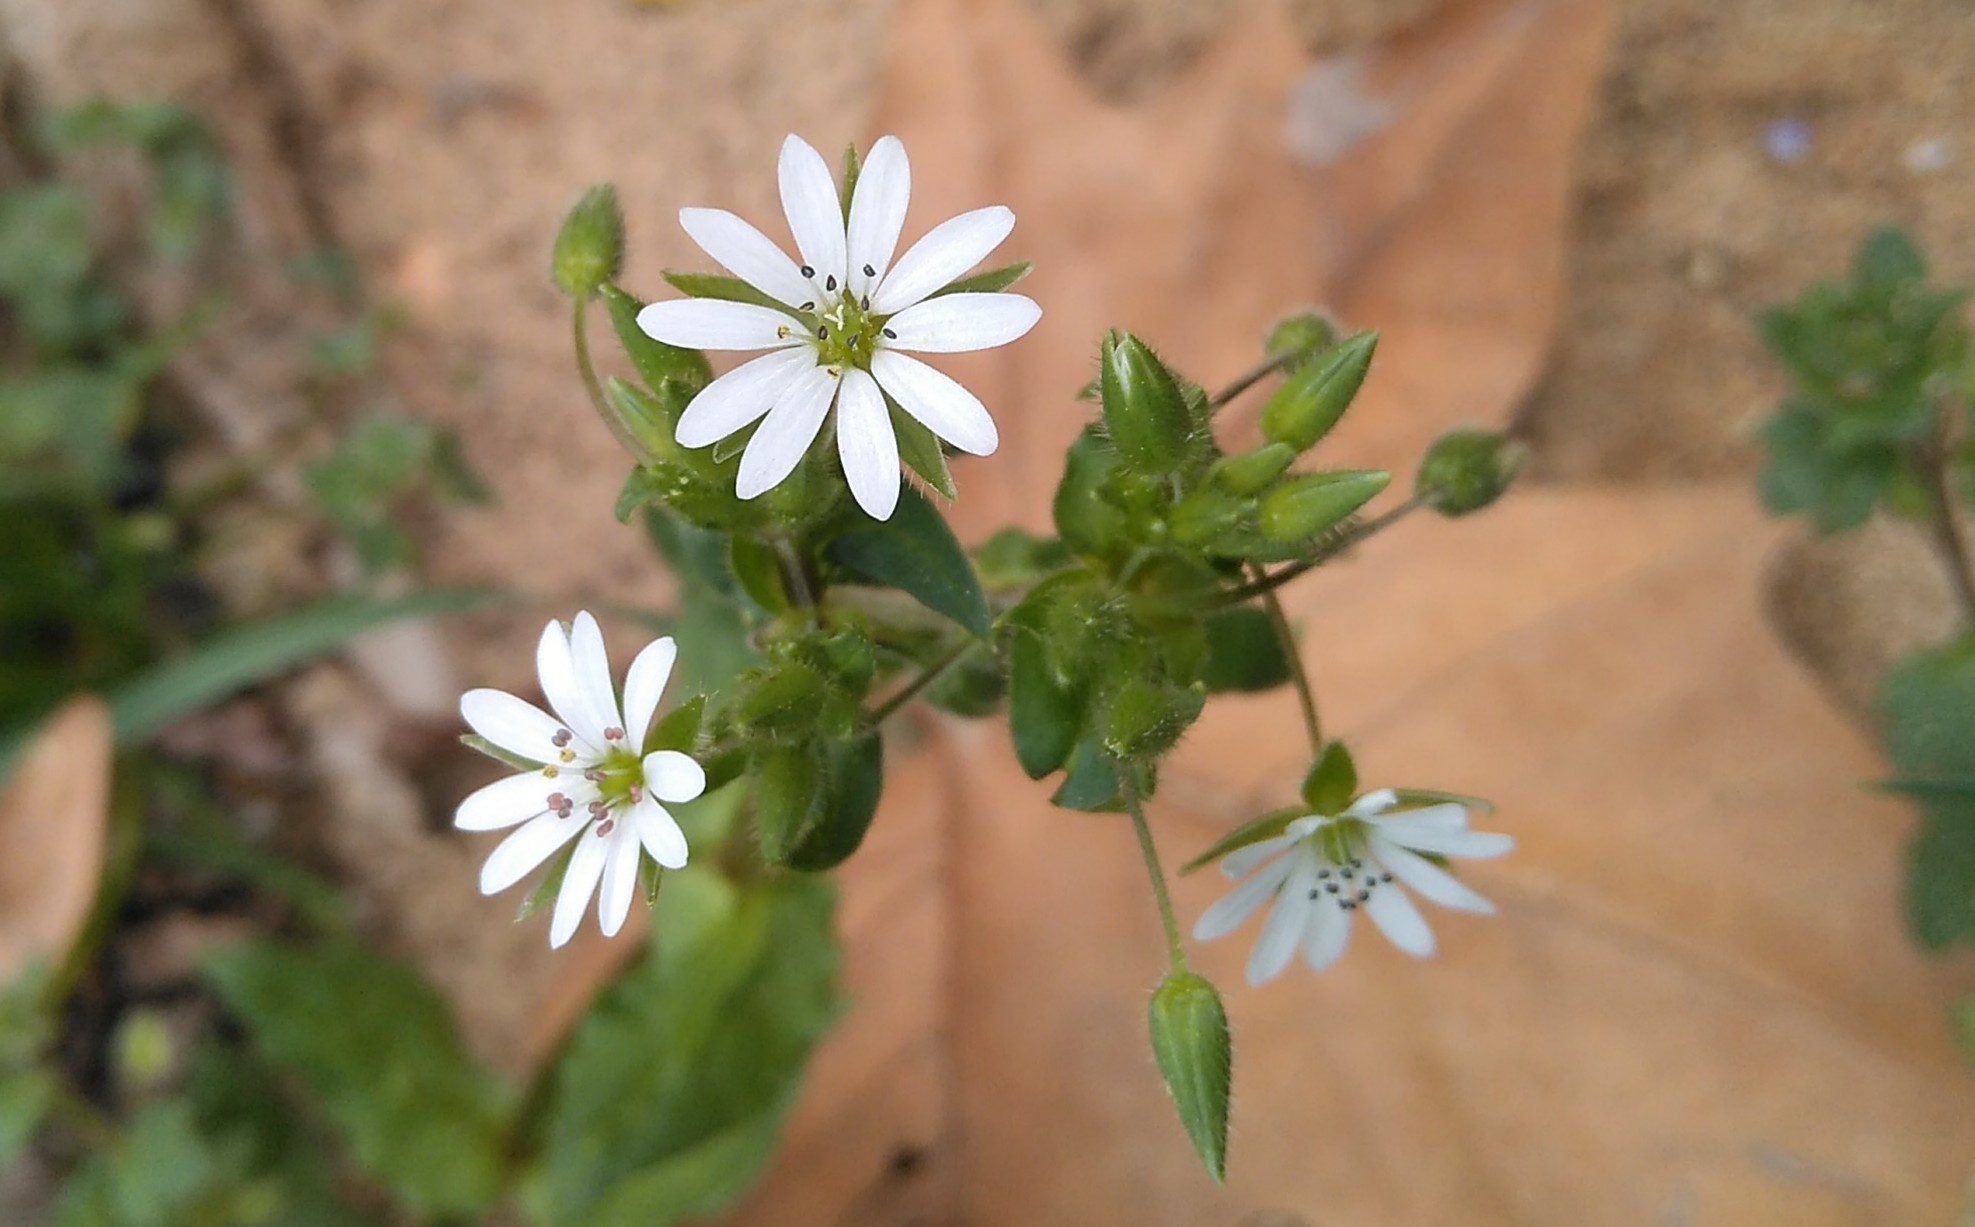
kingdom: Plantae
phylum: Tracheophyta
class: Magnoliopsida
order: Caryophyllales
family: Caryophyllaceae
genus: Stellaria
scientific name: Stellaria neglecta
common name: Greater chickweed
